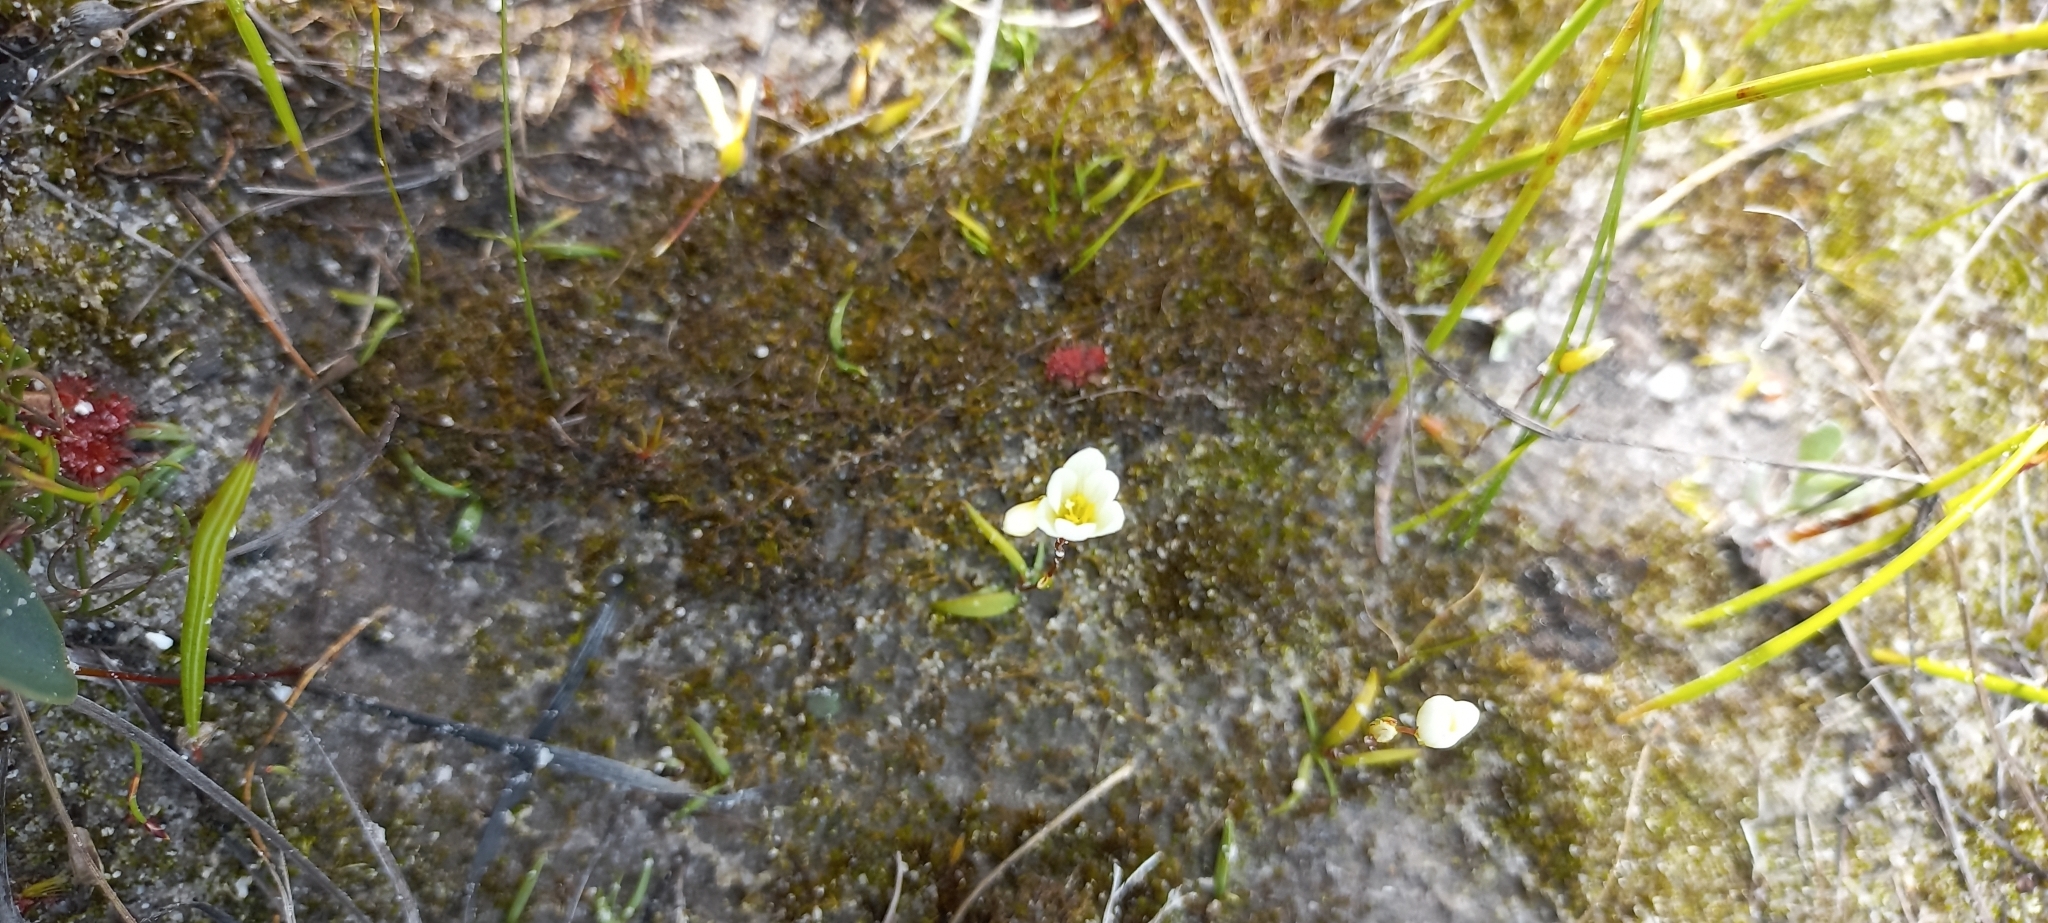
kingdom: Plantae
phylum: Tracheophyta
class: Magnoliopsida
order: Lamiales
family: Lentibulariaceae
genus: Utricularia
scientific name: Utricularia bisquamata
